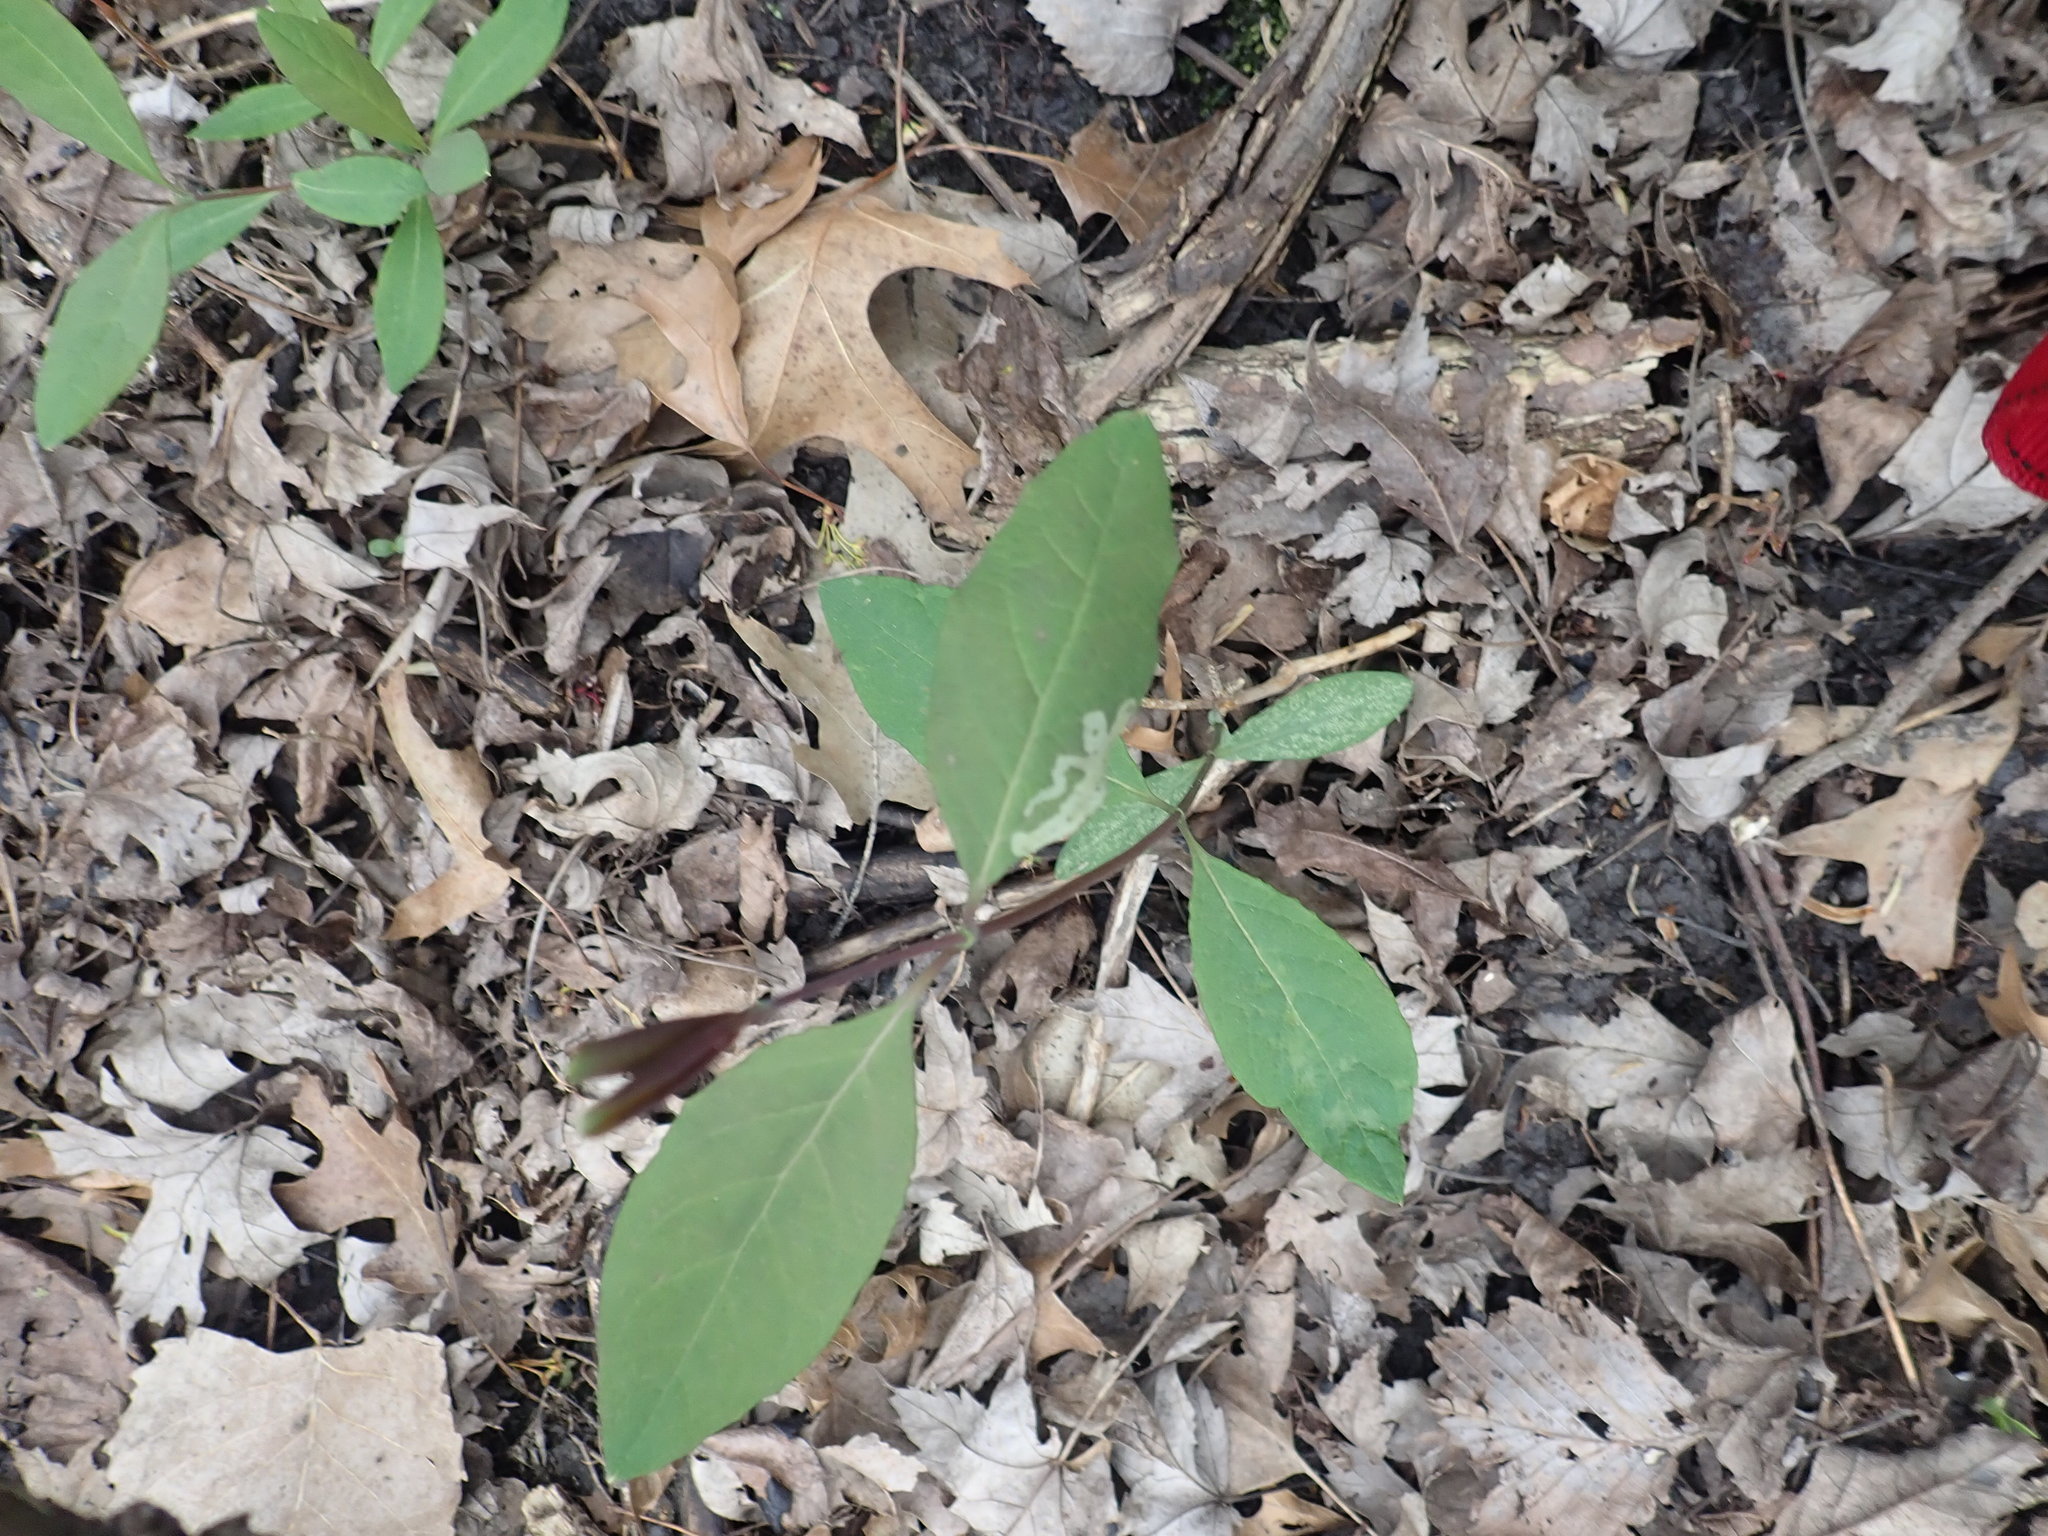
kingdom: Plantae
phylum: Tracheophyta
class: Magnoliopsida
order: Dipsacales
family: Caprifoliaceae
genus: Lonicera
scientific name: Lonicera dioica
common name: Limber honeysuckle
